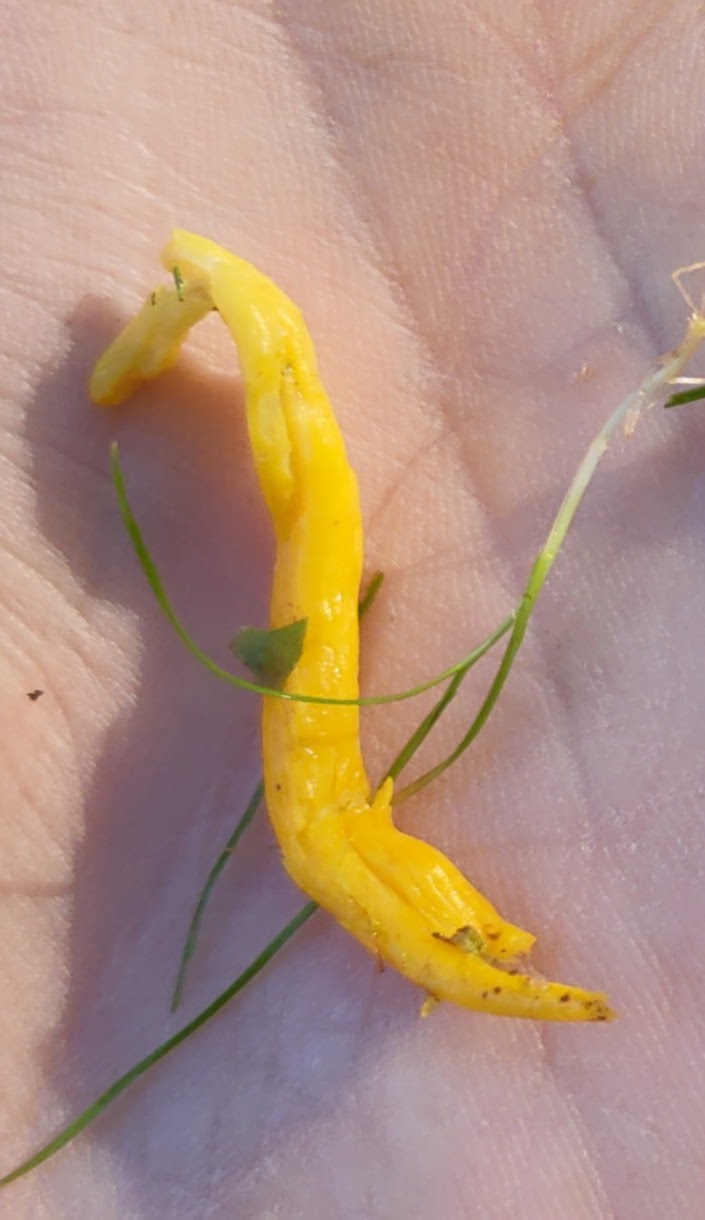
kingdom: Fungi
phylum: Basidiomycota
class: Agaricomycetes
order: Agaricales
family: Clavariaceae
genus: Clavulinopsis
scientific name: Clavulinopsis helvola
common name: Yellow club
